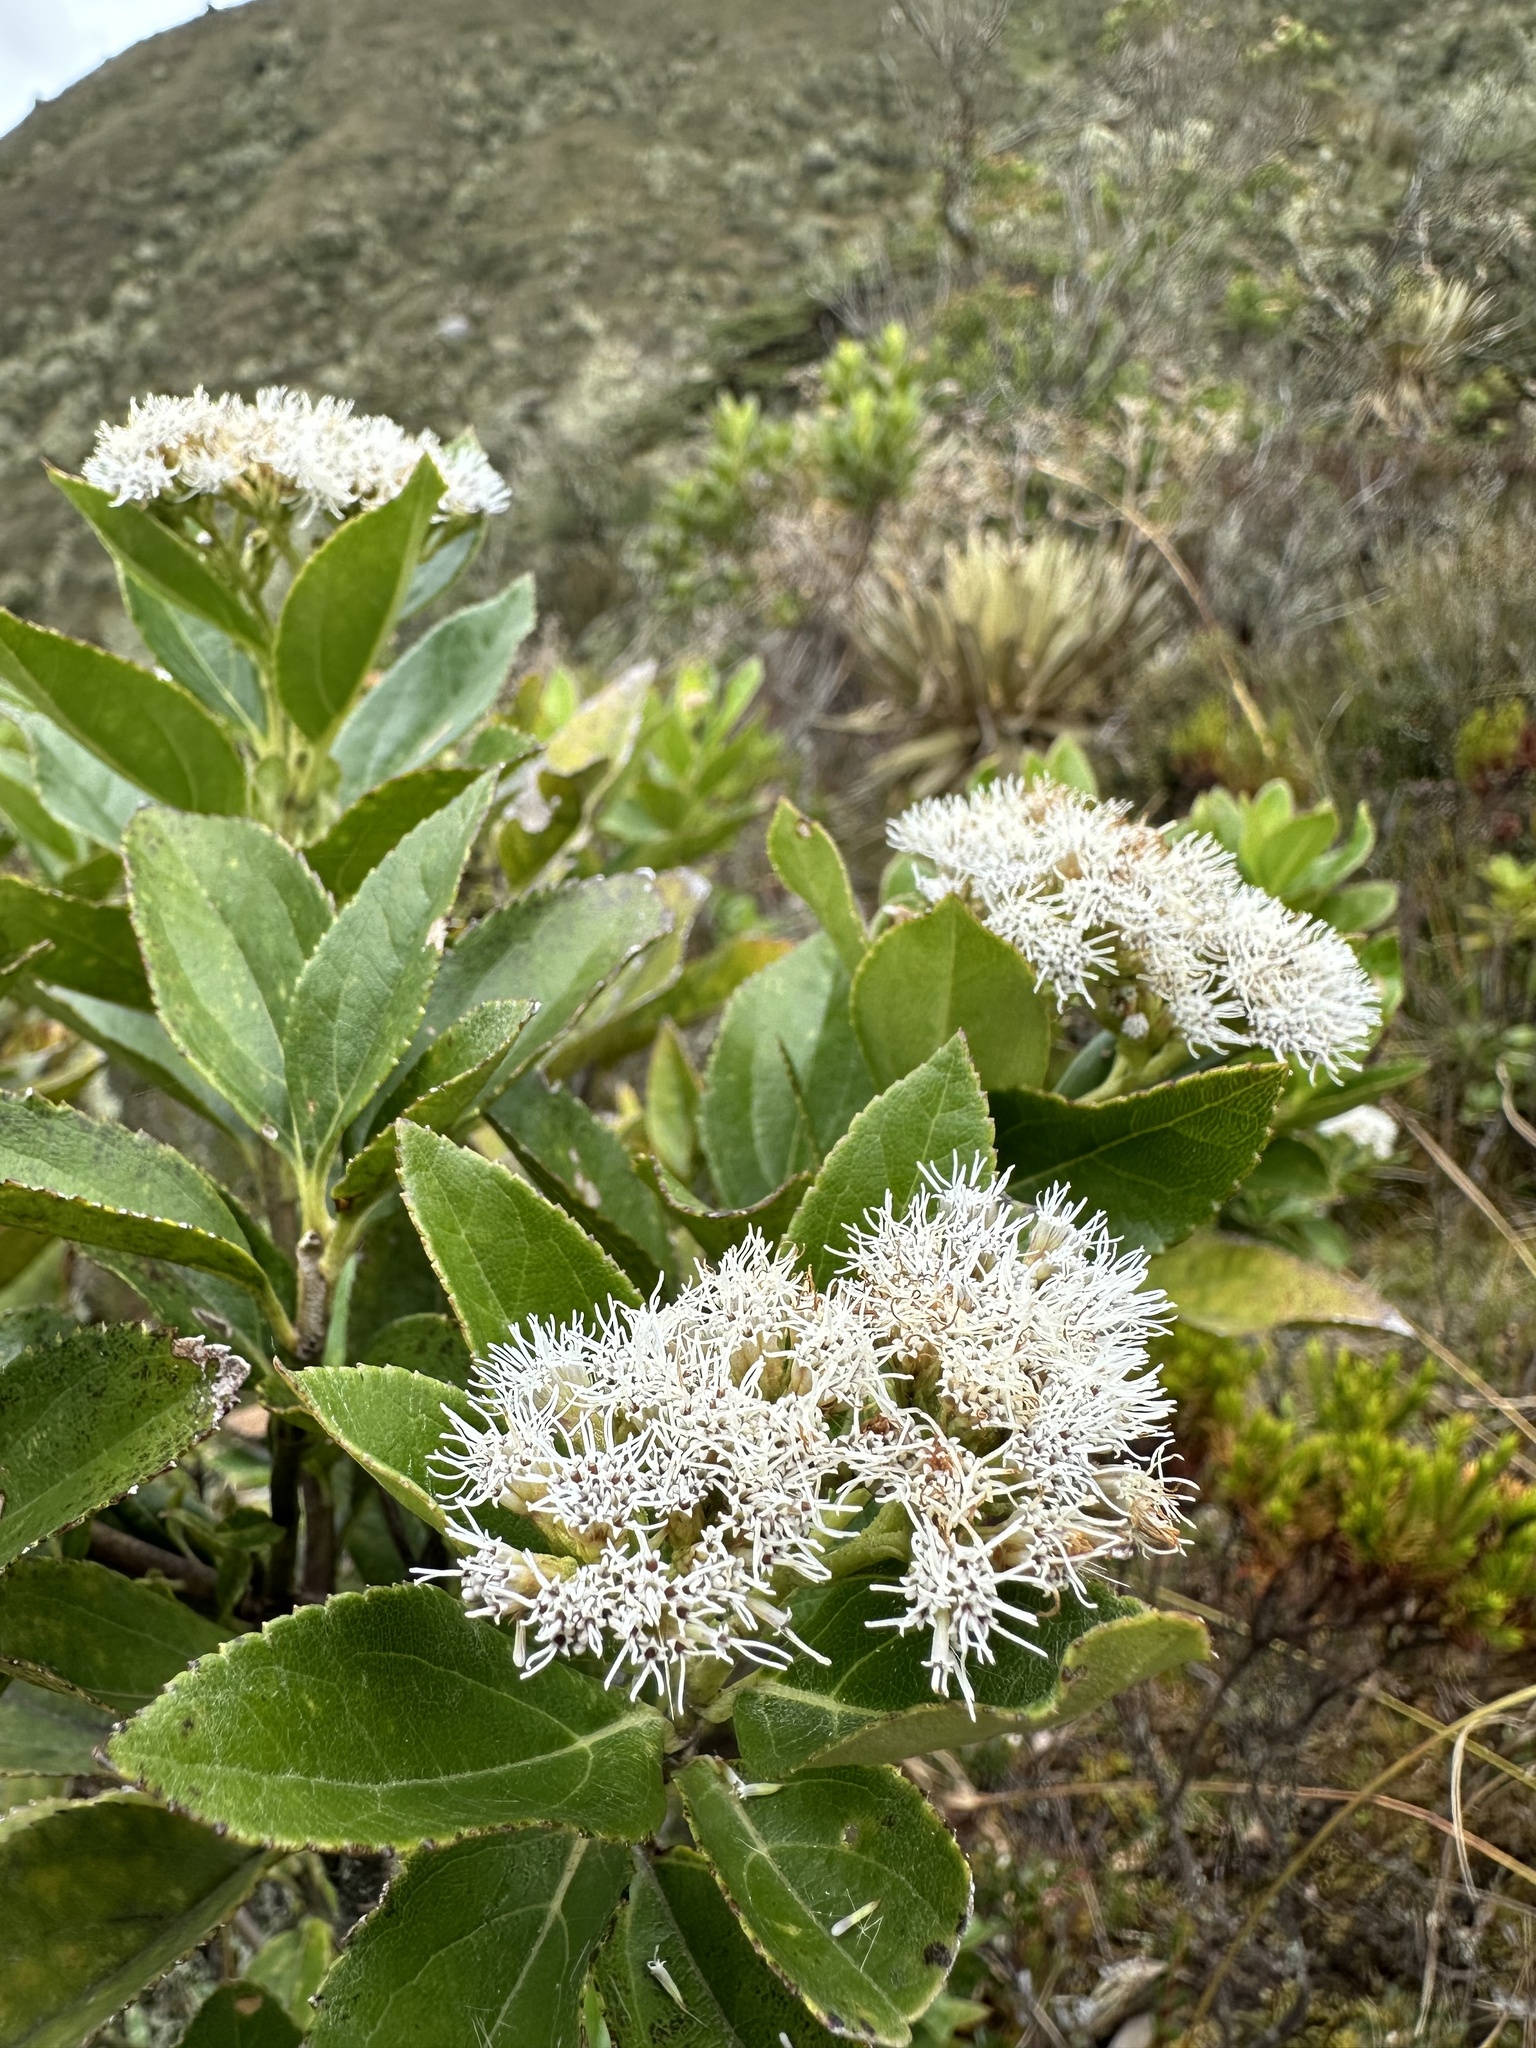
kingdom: Plantae
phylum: Tracheophyta
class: Magnoliopsida
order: Asterales
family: Asteraceae
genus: Ageratina
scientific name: Ageratina tinifolia
